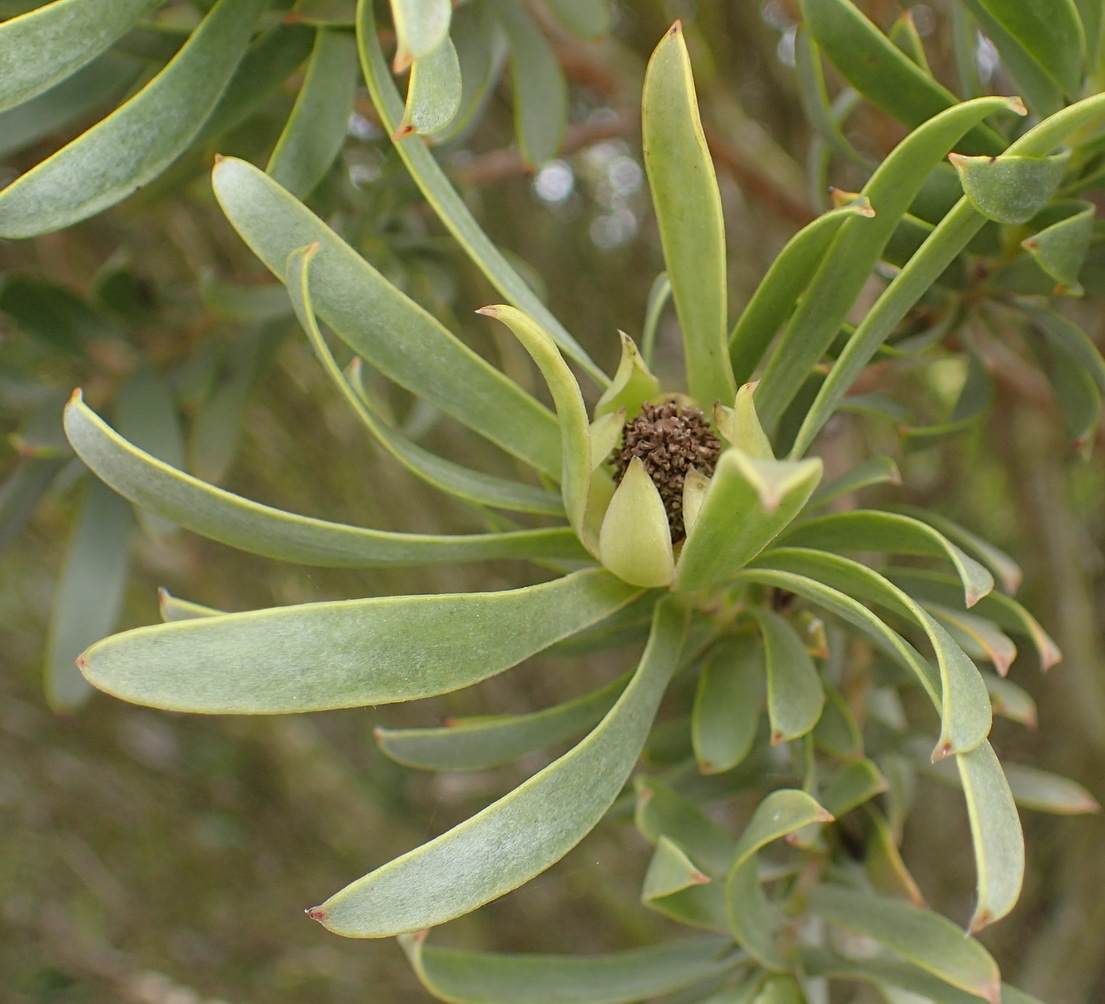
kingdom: Plantae
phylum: Tracheophyta
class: Magnoliopsida
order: Proteales
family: Proteaceae
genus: Leucadendron
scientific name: Leucadendron meridianum
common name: Limestone conebush
